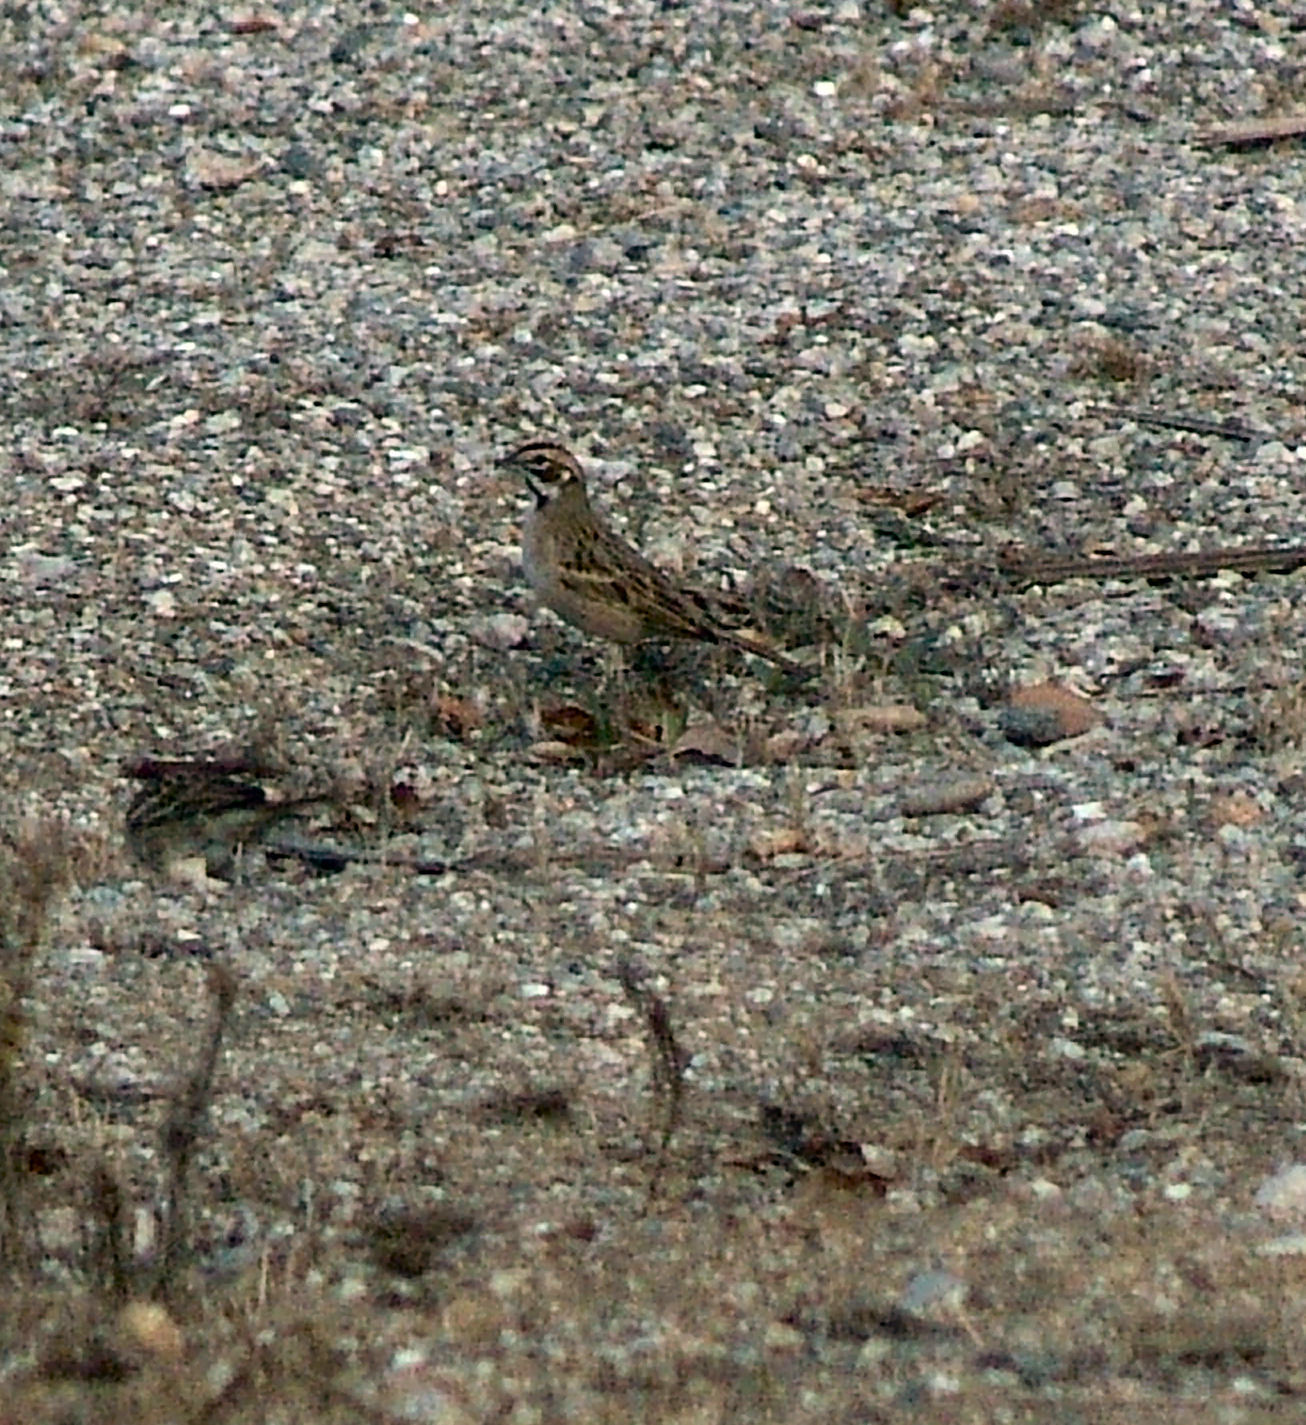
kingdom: Animalia
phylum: Chordata
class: Aves
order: Passeriformes
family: Passerellidae
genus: Chondestes
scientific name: Chondestes grammacus
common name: Lark sparrow
